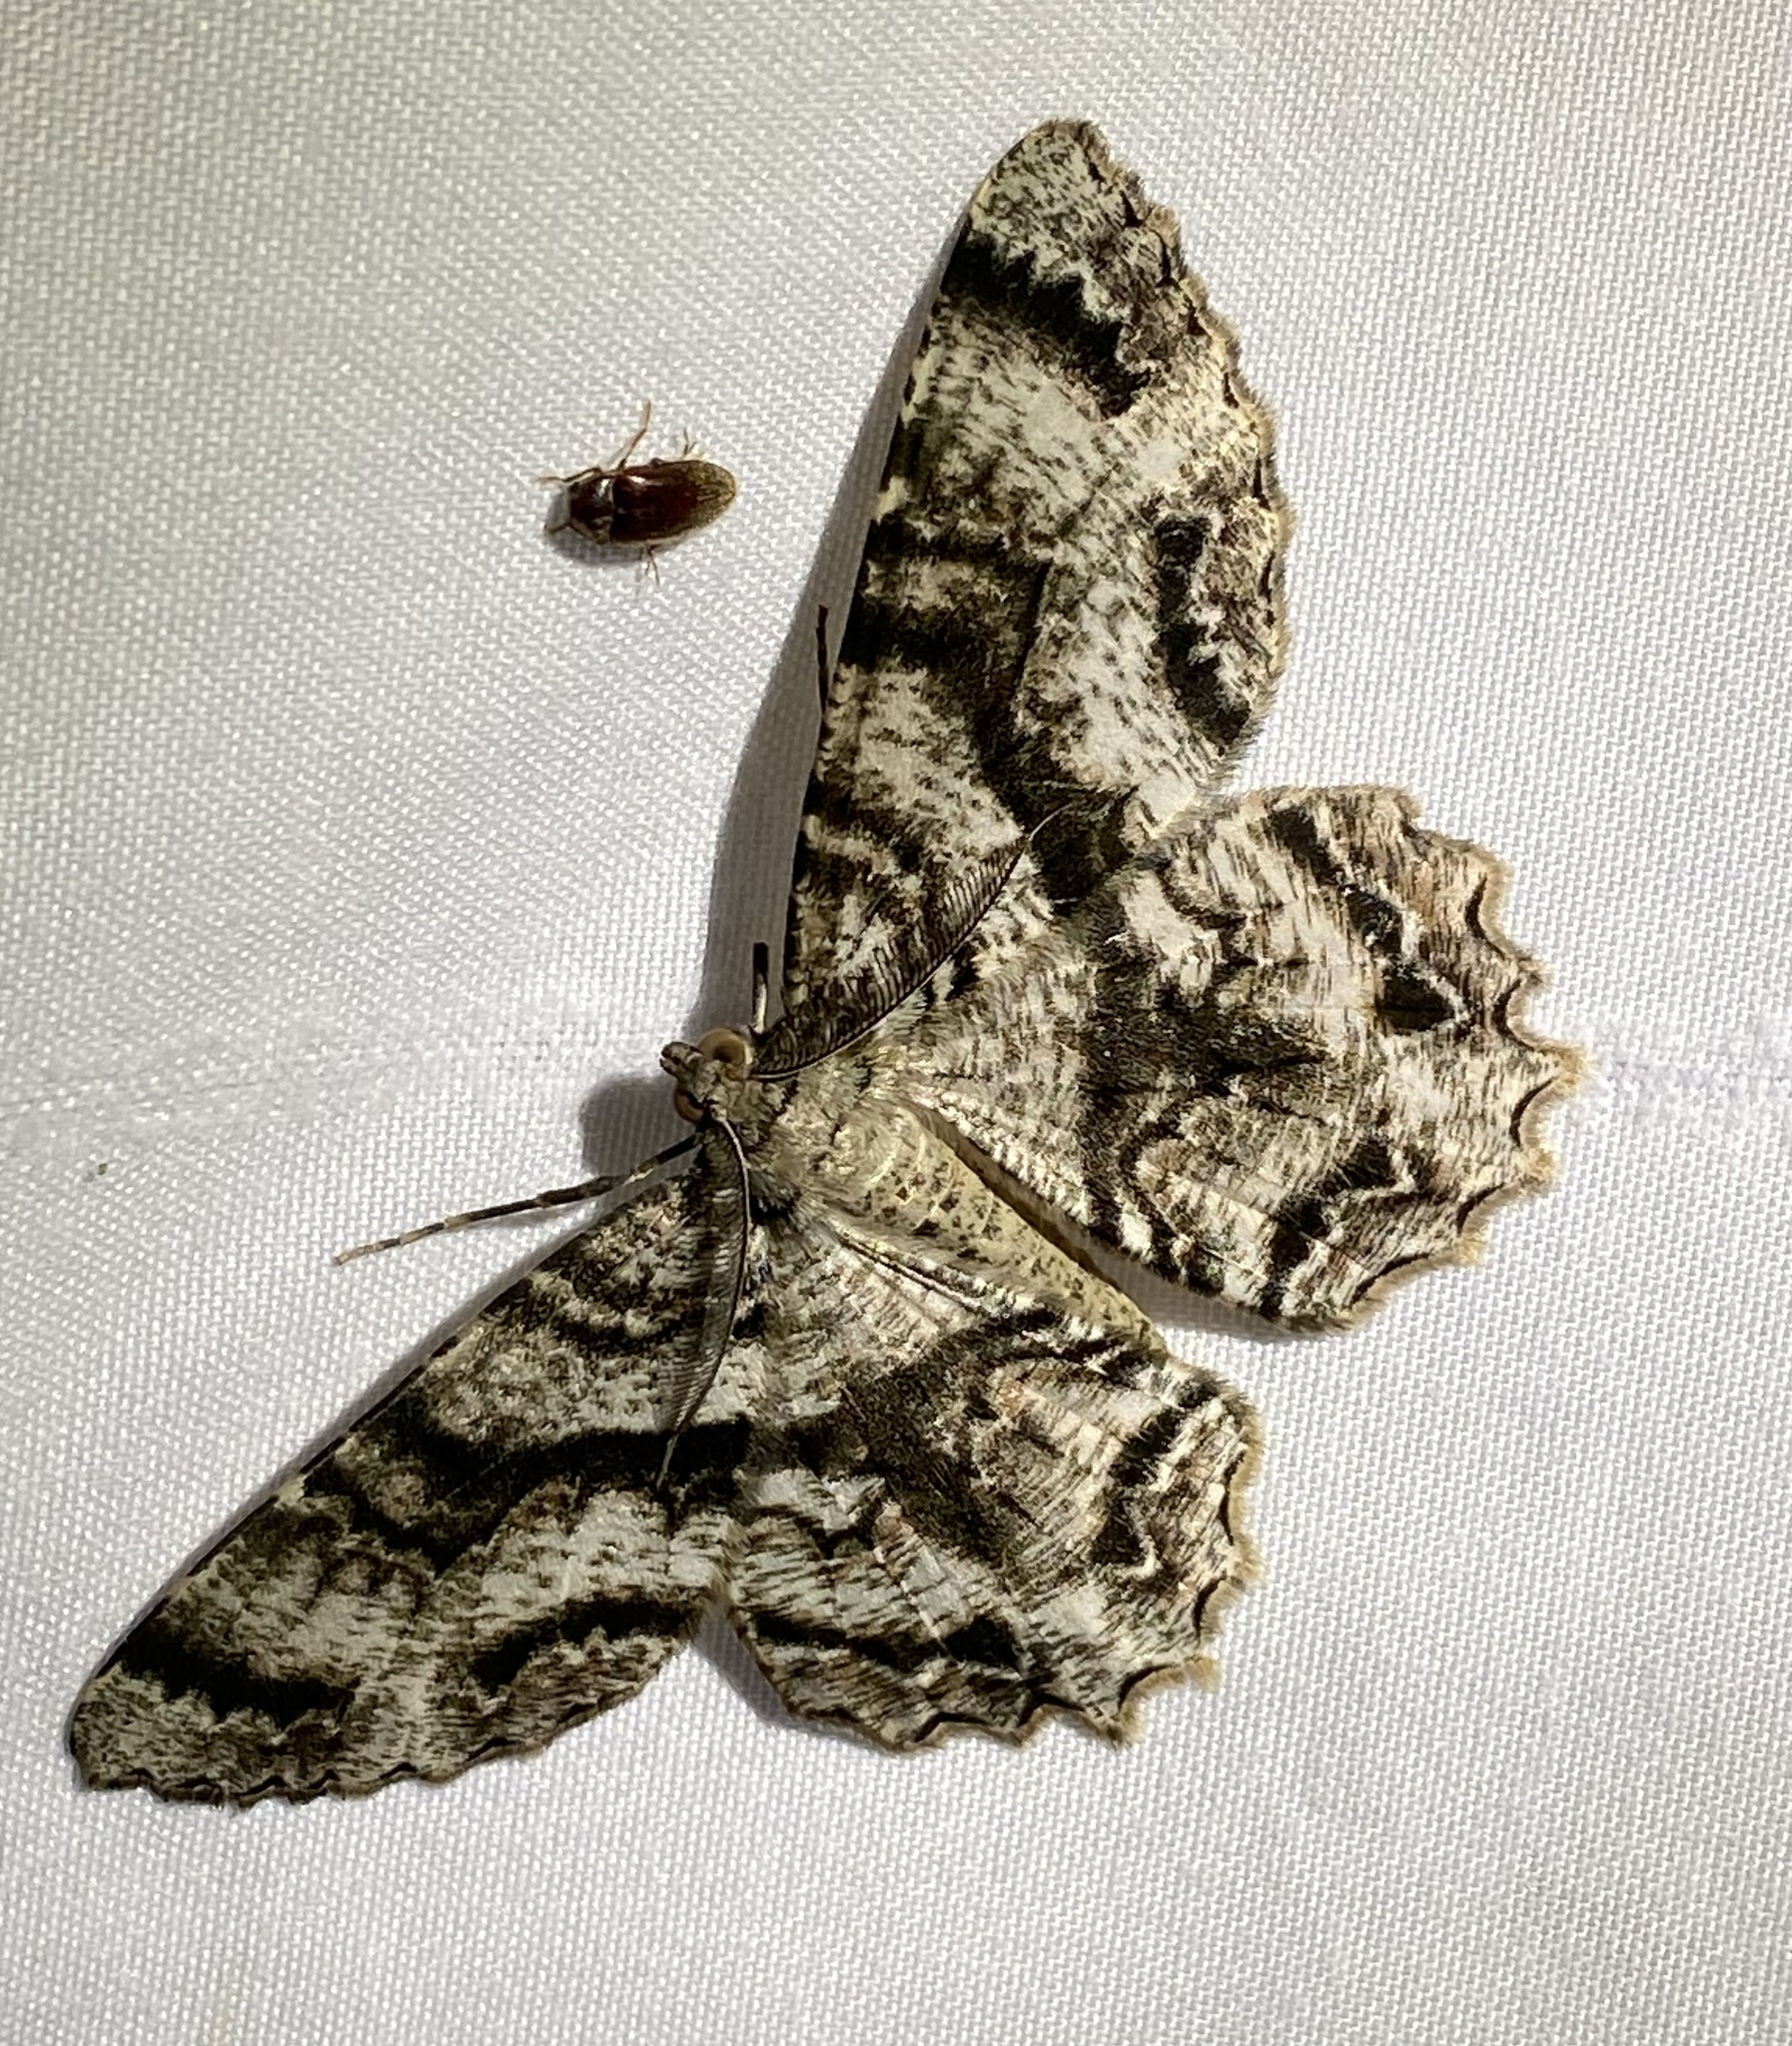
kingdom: Animalia
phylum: Arthropoda
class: Insecta
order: Lepidoptera
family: Geometridae
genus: Epimecis
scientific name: Epimecis hortaria
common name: Tulip-tree beauty
